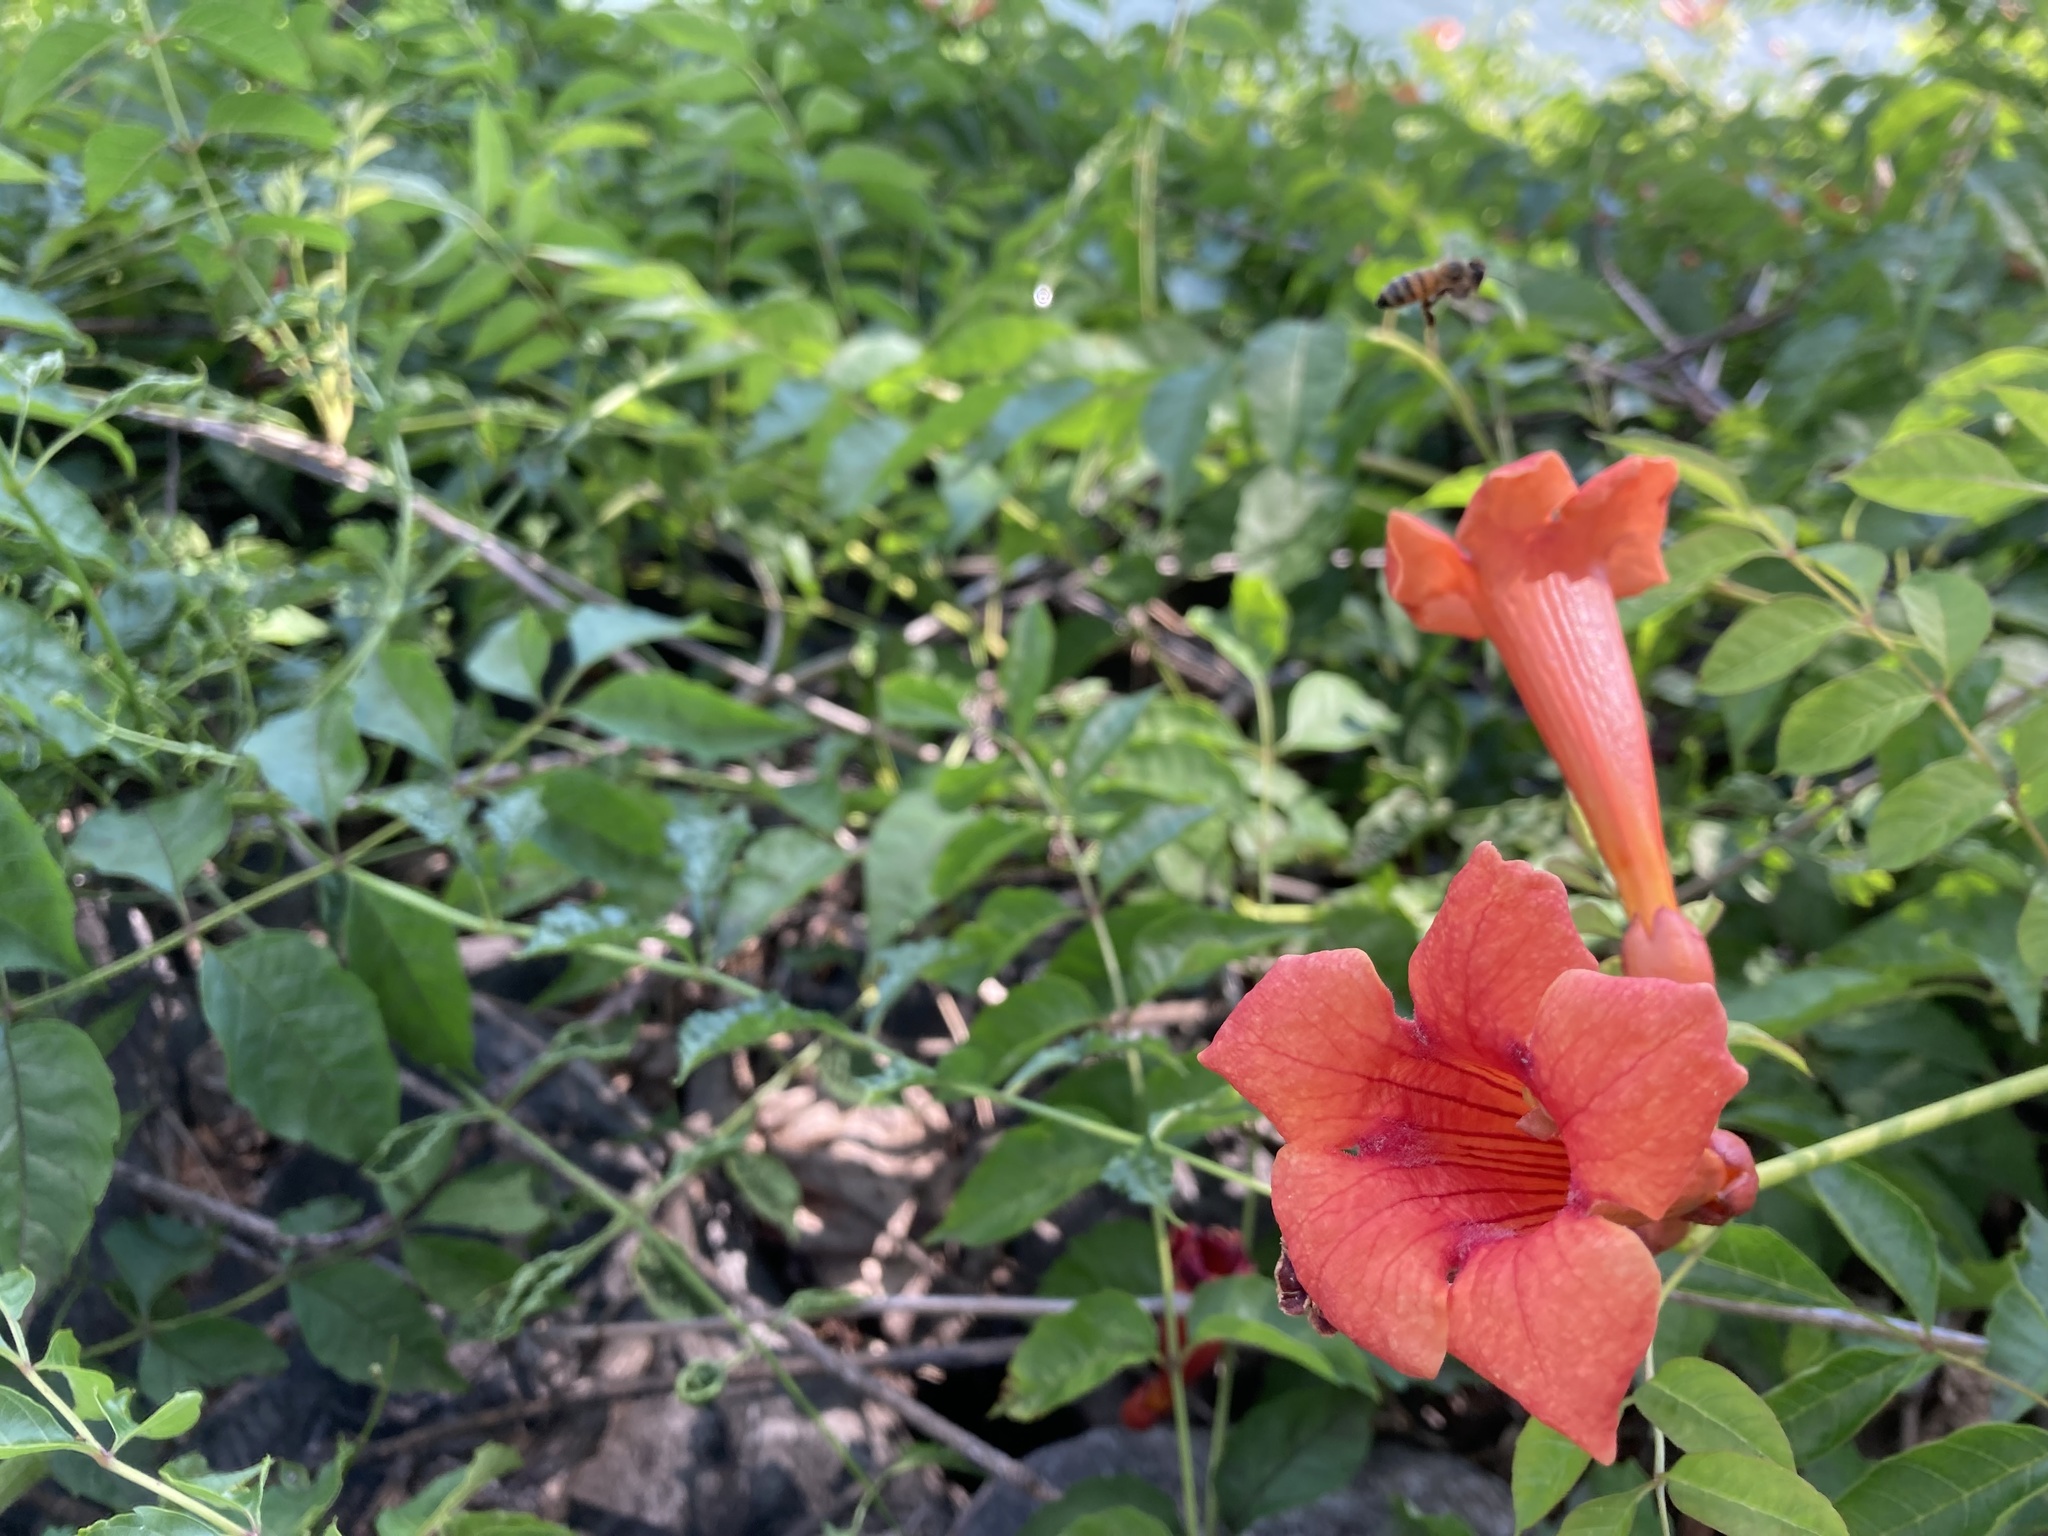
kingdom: Plantae
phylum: Tracheophyta
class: Magnoliopsida
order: Lamiales
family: Bignoniaceae
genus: Campsis
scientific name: Campsis radicans
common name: Trumpet-creeper
